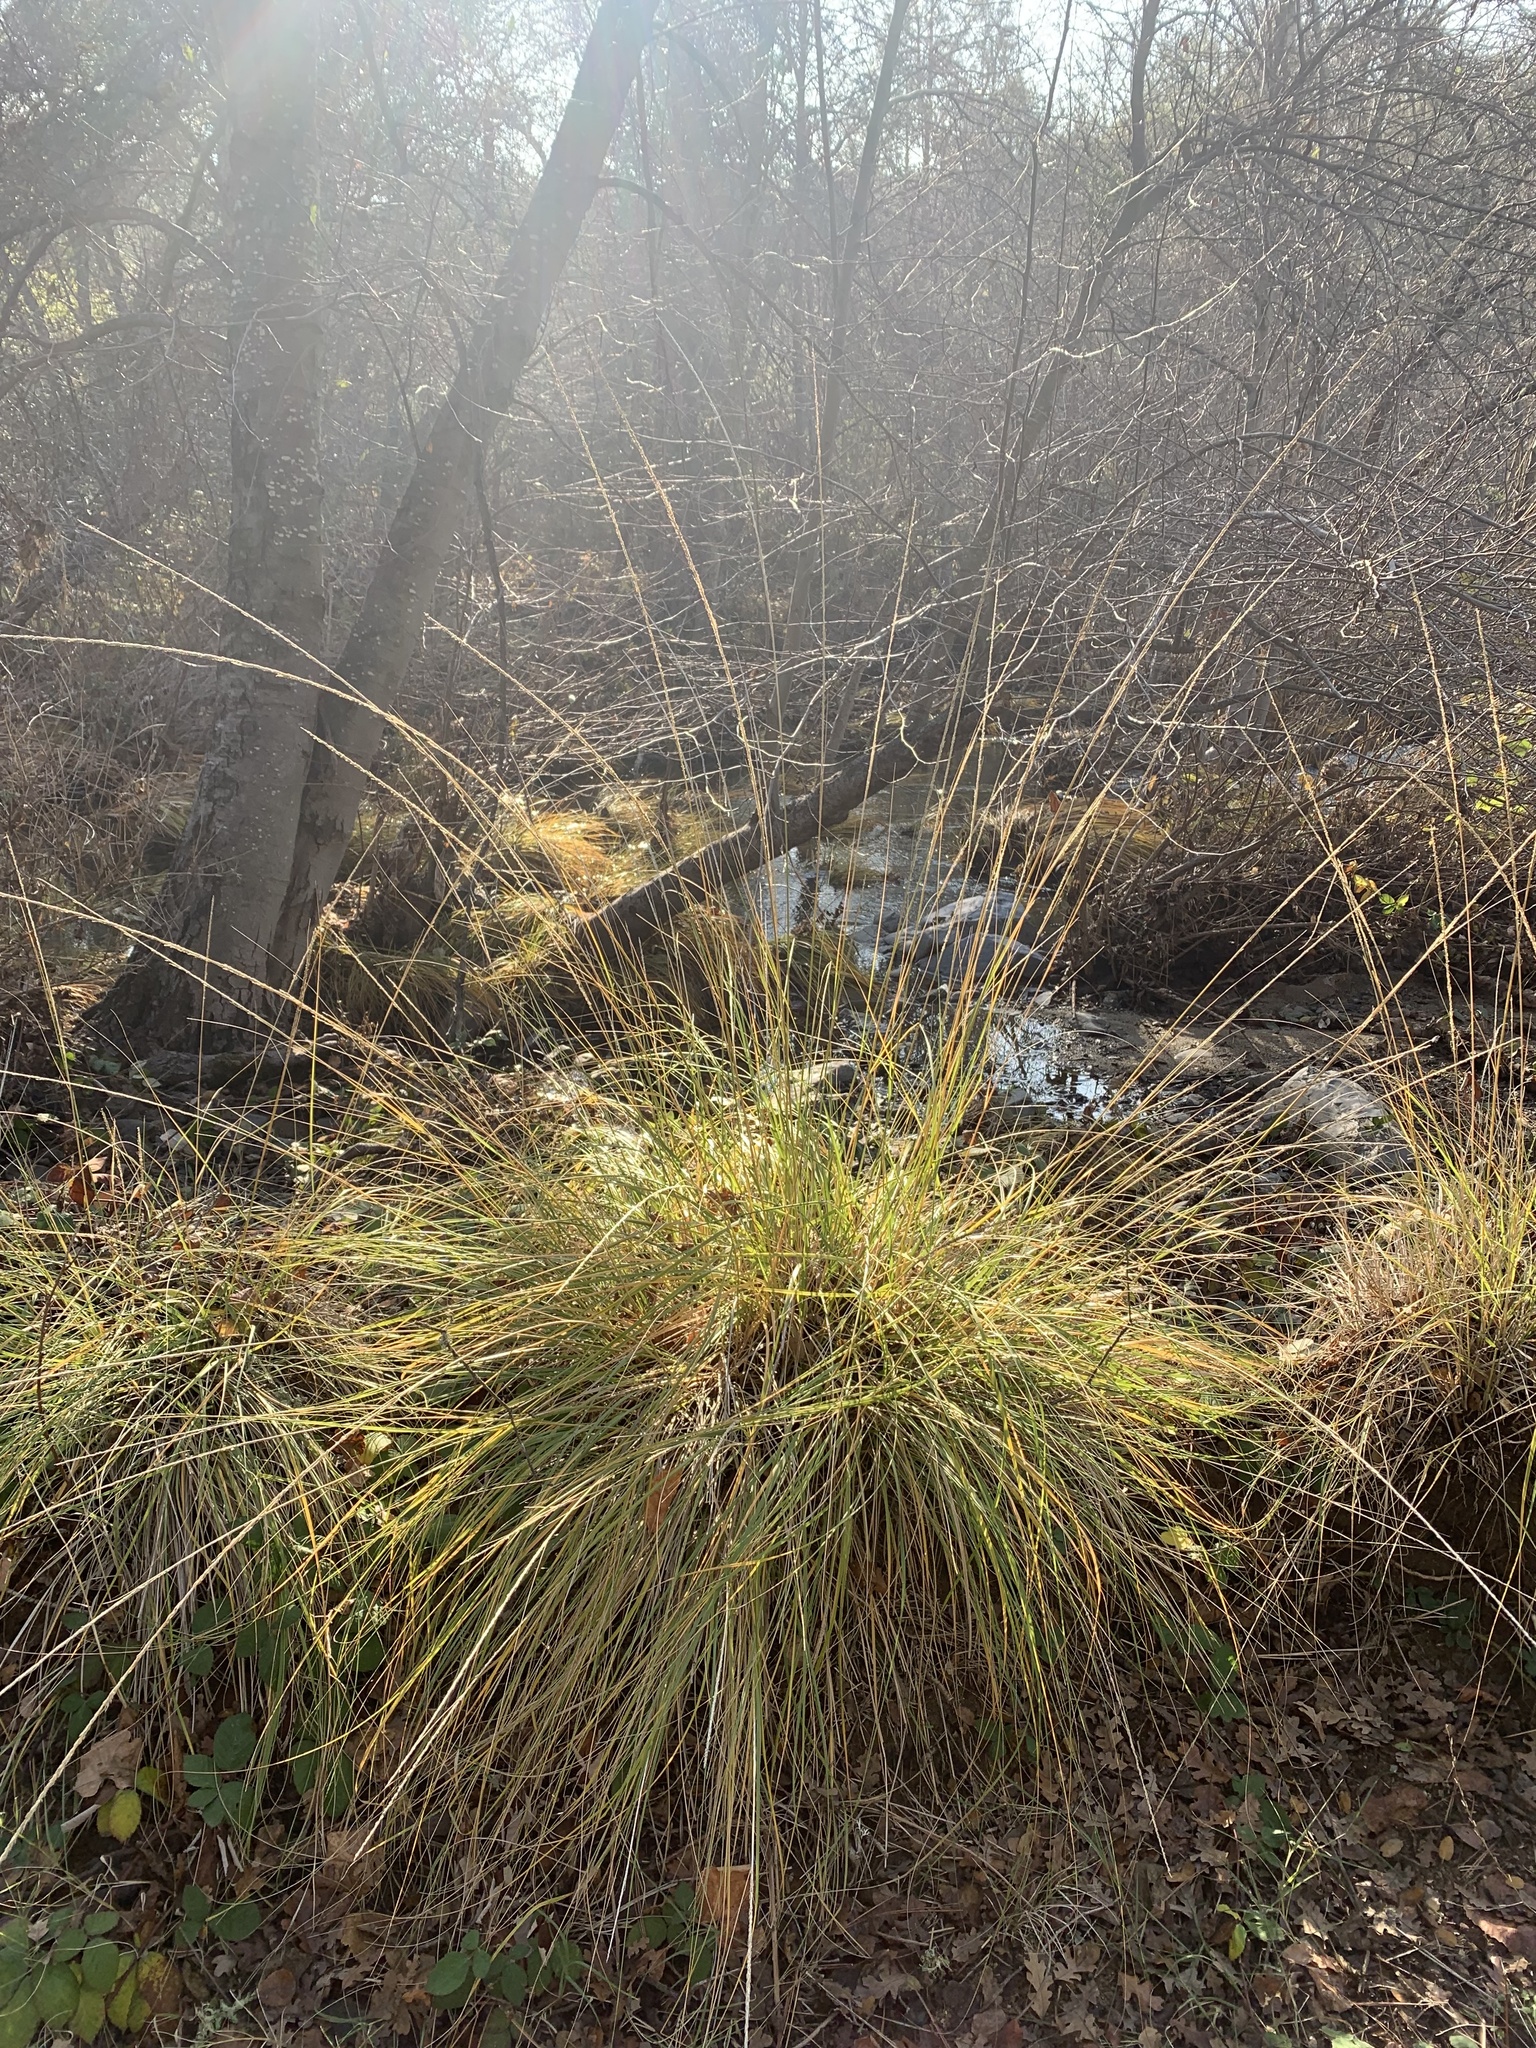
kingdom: Plantae
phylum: Tracheophyta
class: Liliopsida
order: Poales
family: Poaceae
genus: Muhlenbergia
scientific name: Muhlenbergia rigens
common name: Deer grass
